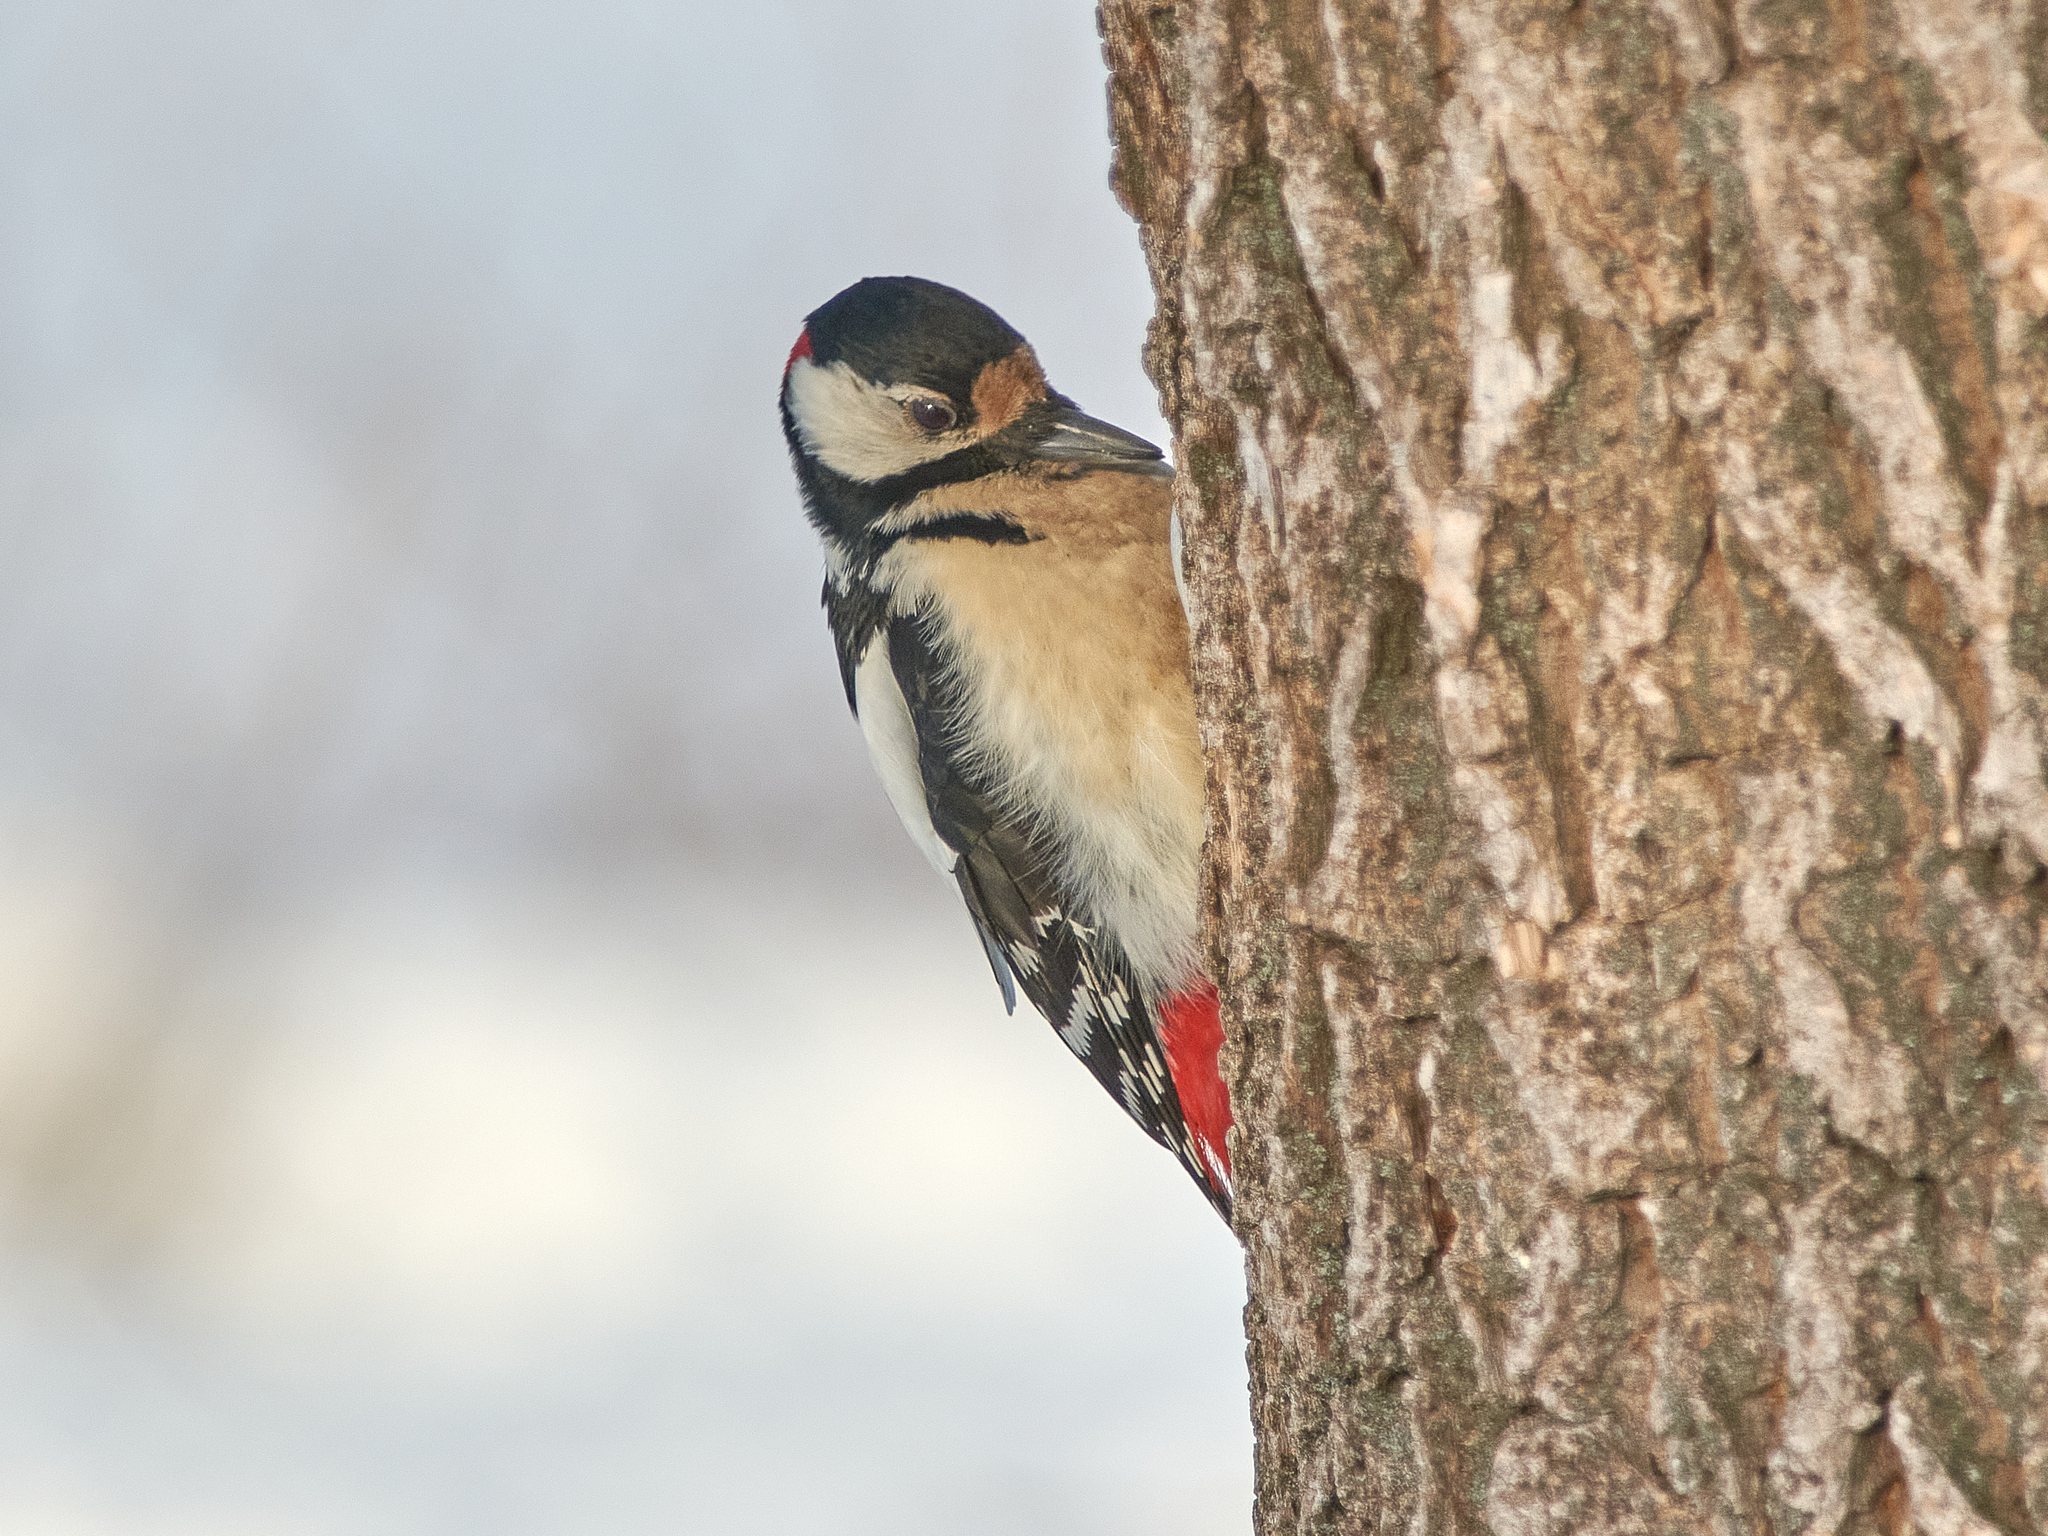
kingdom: Animalia
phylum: Chordata
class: Aves
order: Piciformes
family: Picidae
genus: Dendrocopos
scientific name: Dendrocopos major
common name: Great spotted woodpecker
